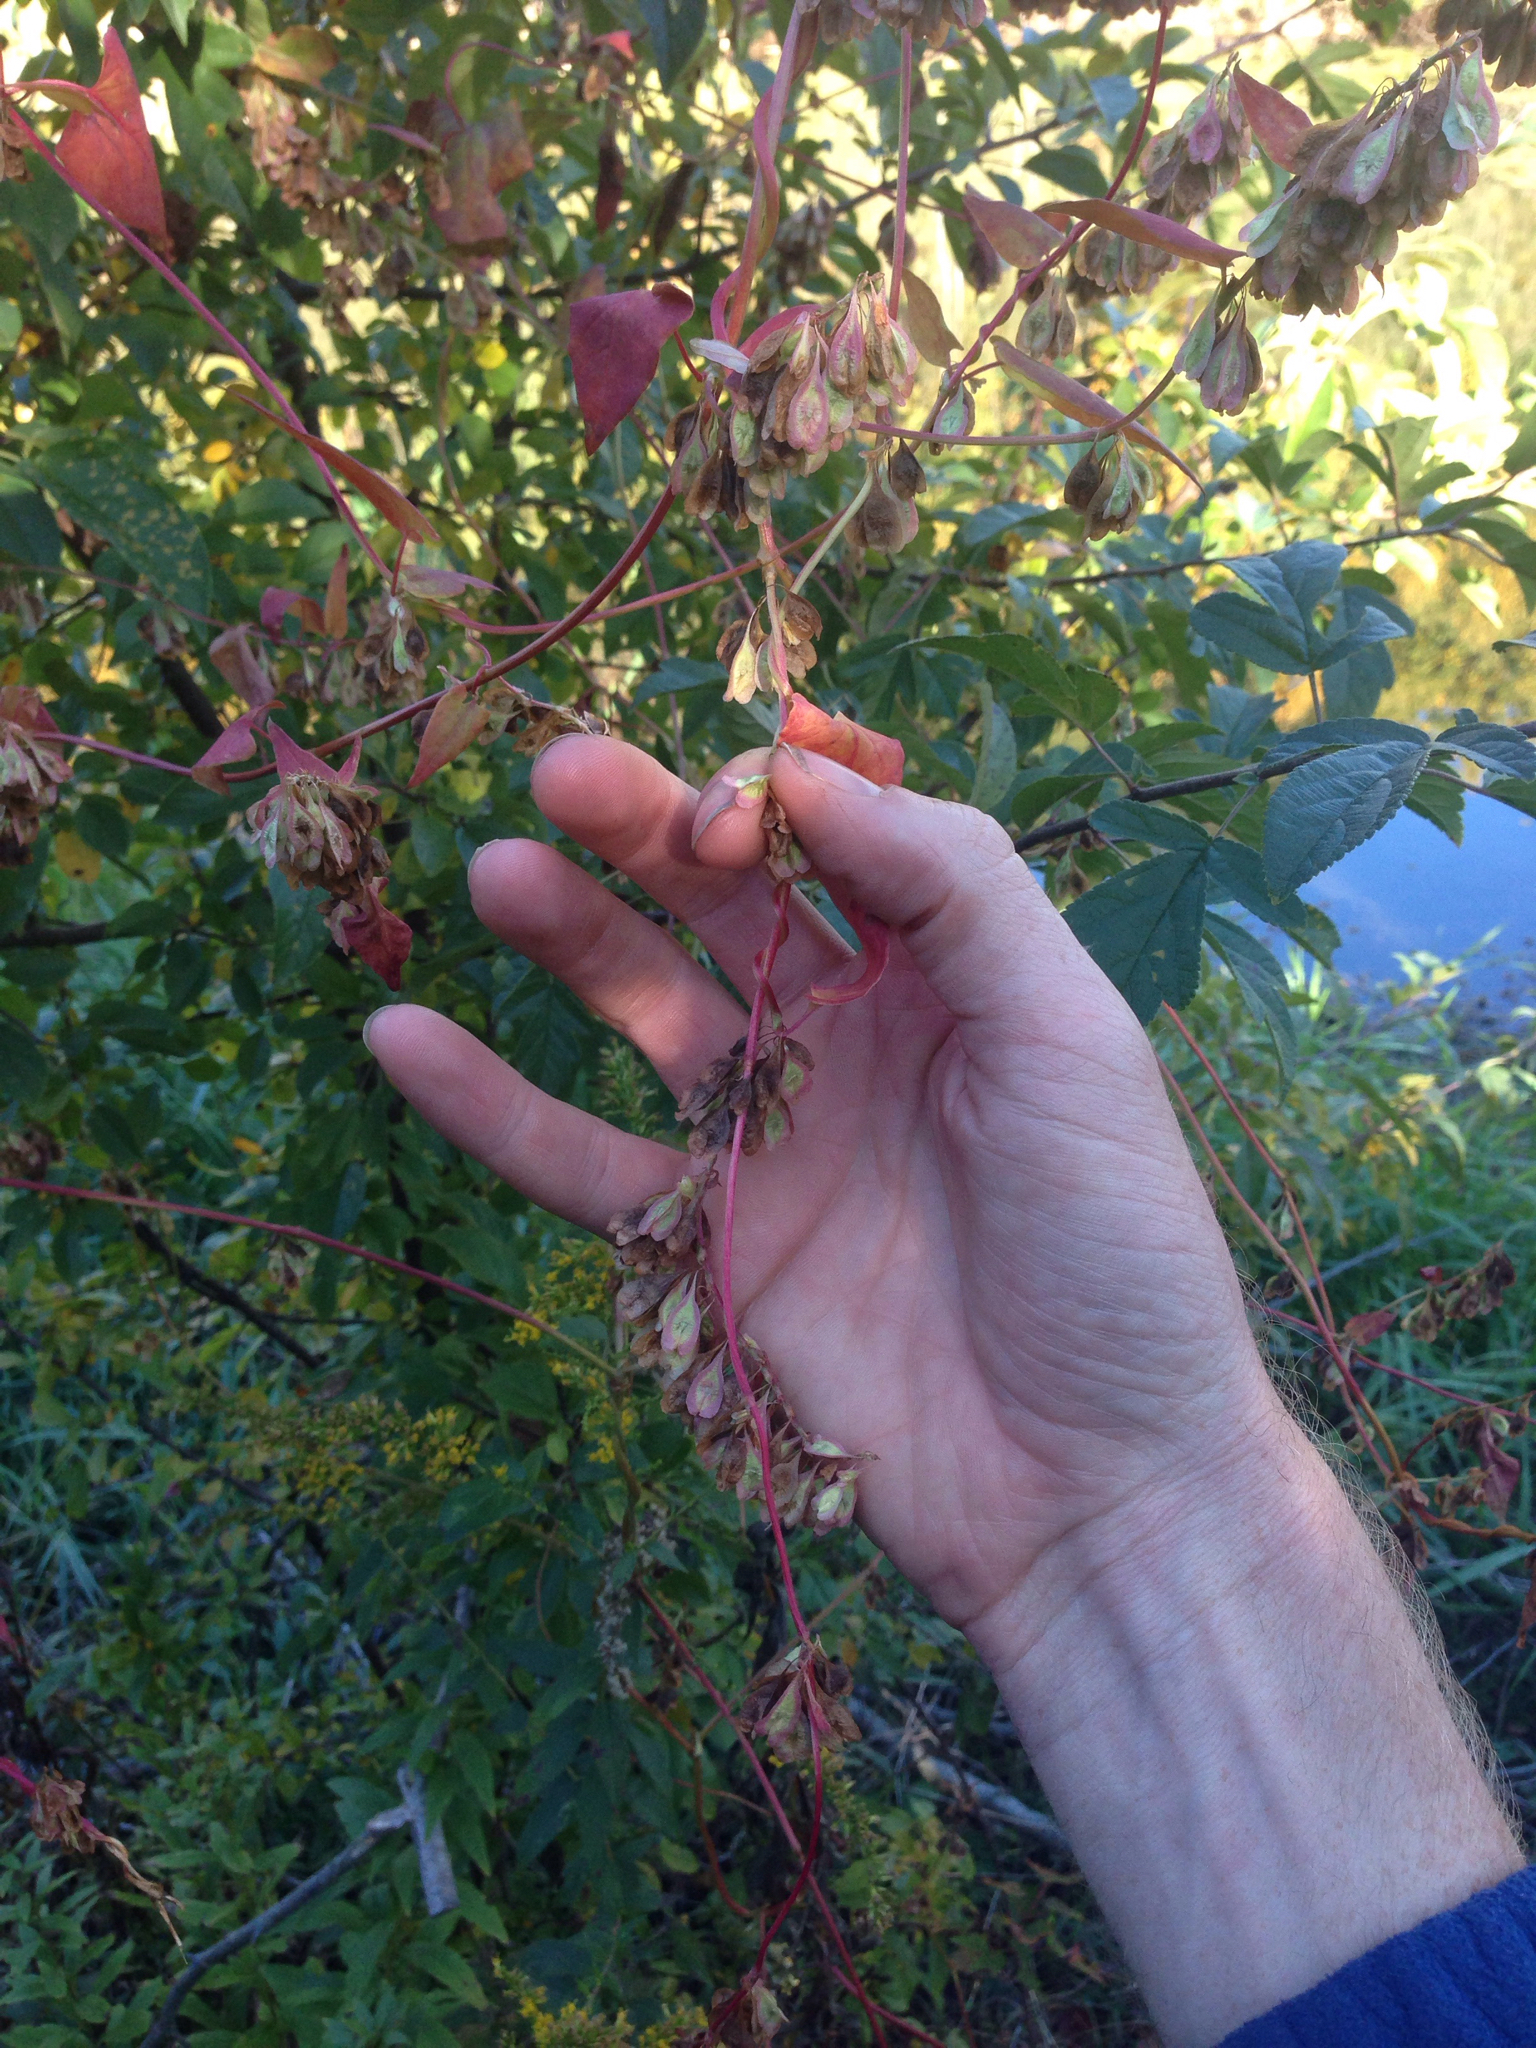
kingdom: Plantae
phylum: Tracheophyta
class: Magnoliopsida
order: Caryophyllales
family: Polygonaceae
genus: Fallopia
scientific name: Fallopia scandens
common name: Climbing false buckwheat
